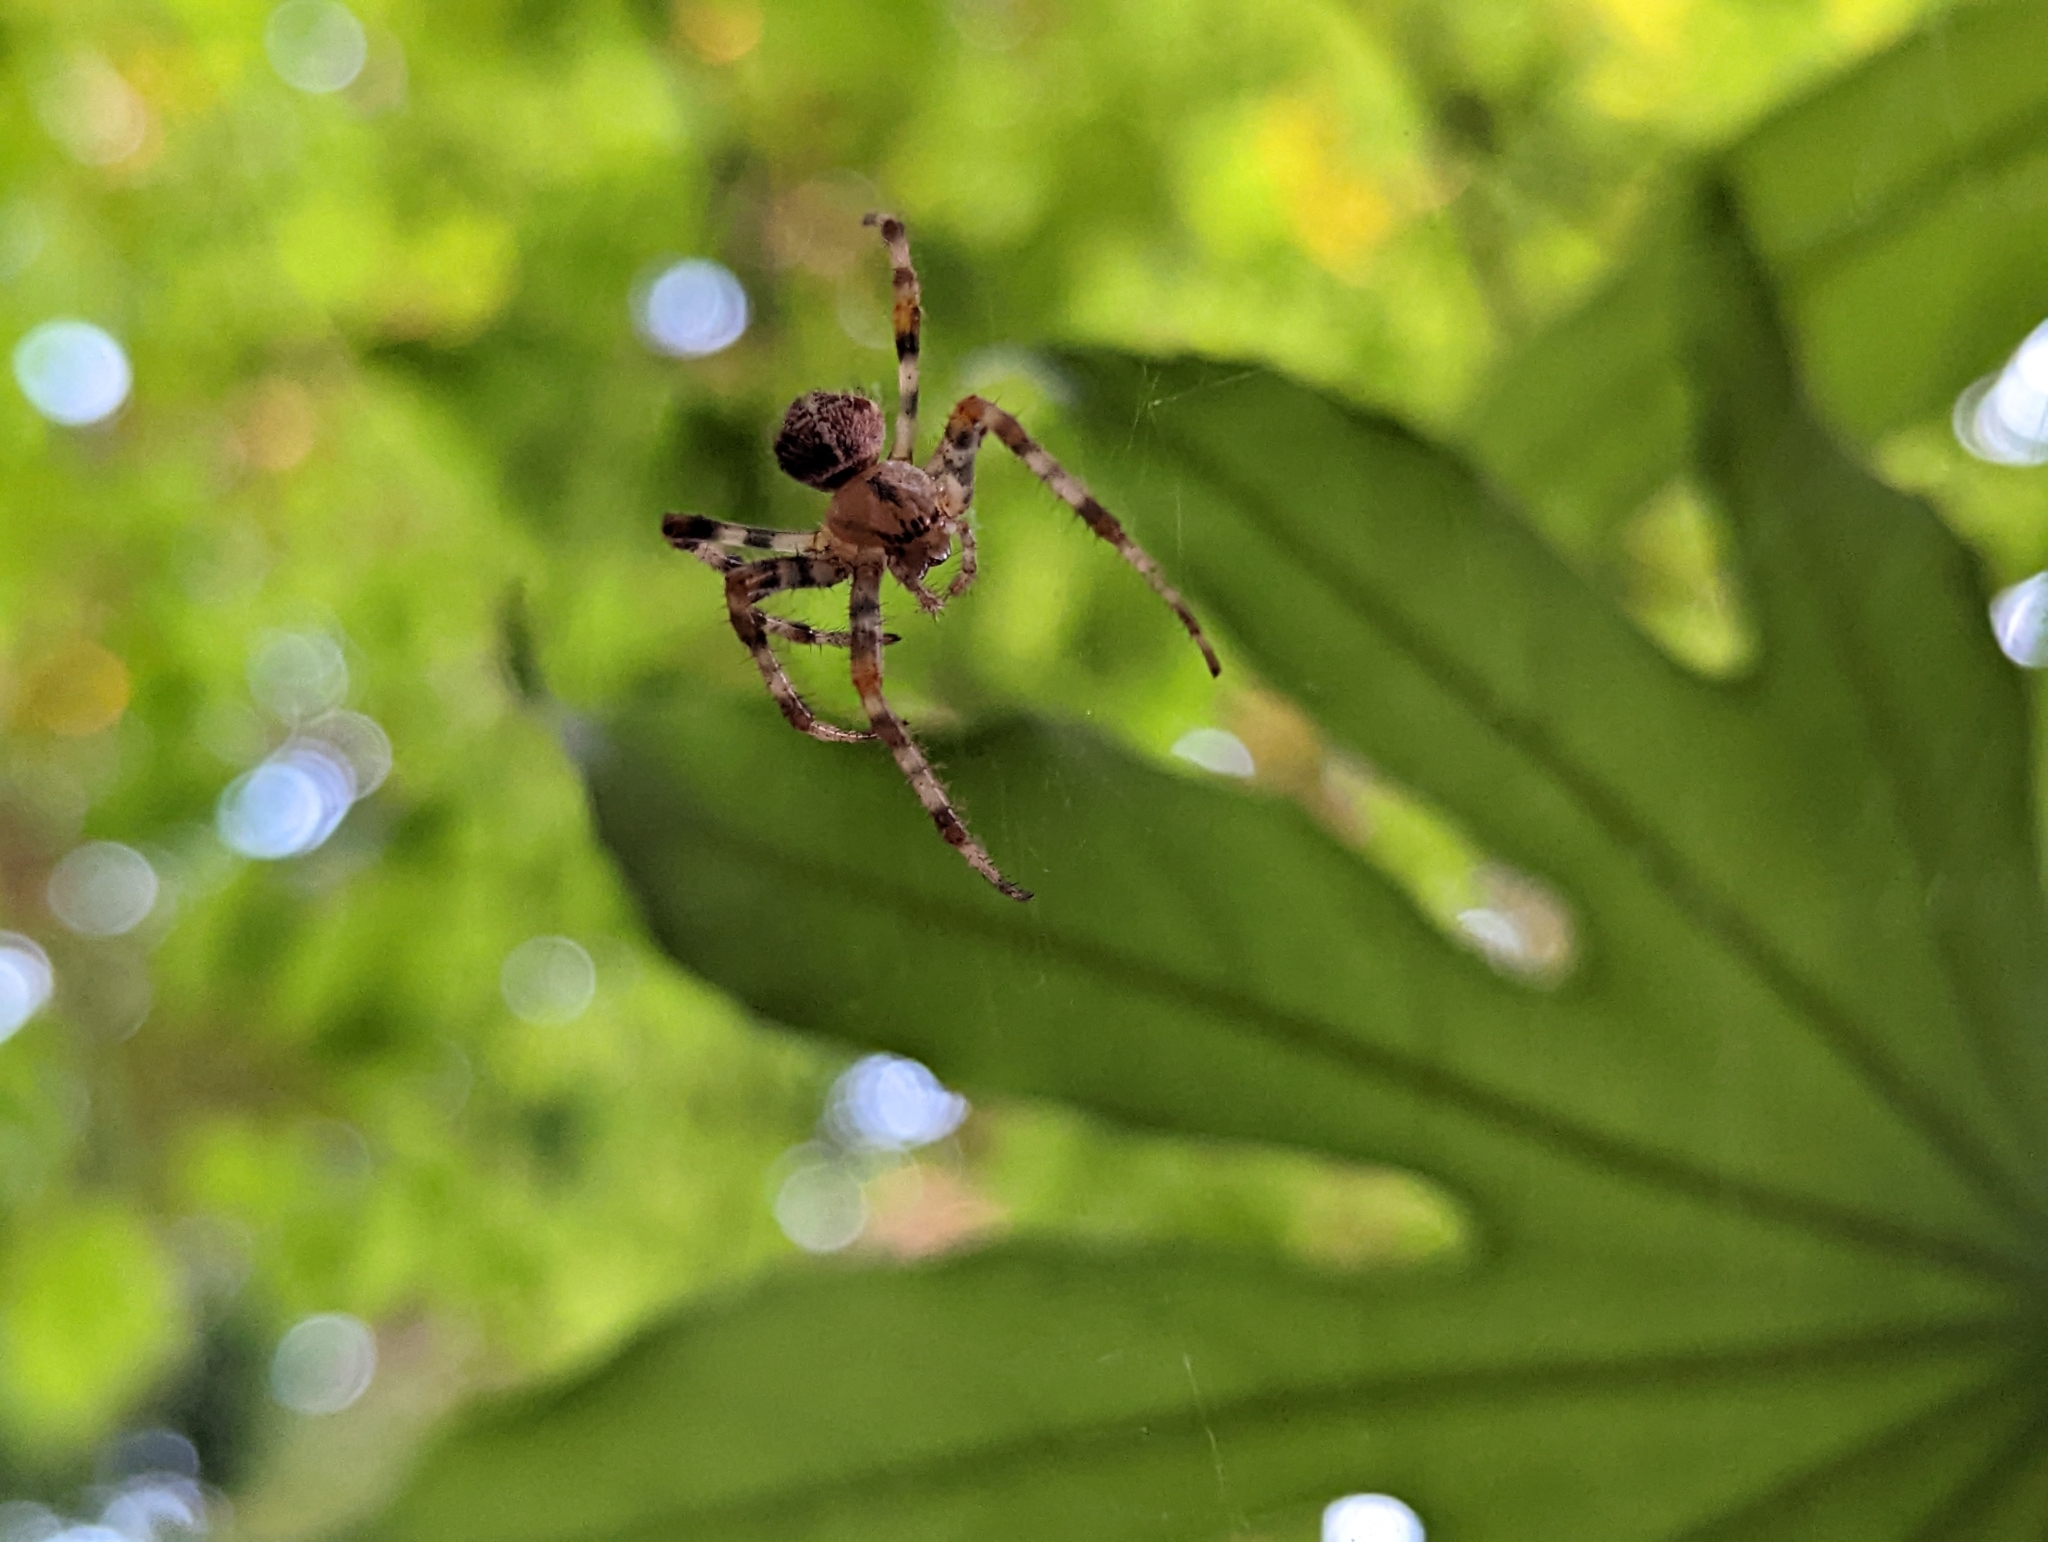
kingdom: Animalia
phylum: Arthropoda
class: Arachnida
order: Araneae
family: Araneidae
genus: Araneus
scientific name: Araneus diadematus
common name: Cross orbweaver
